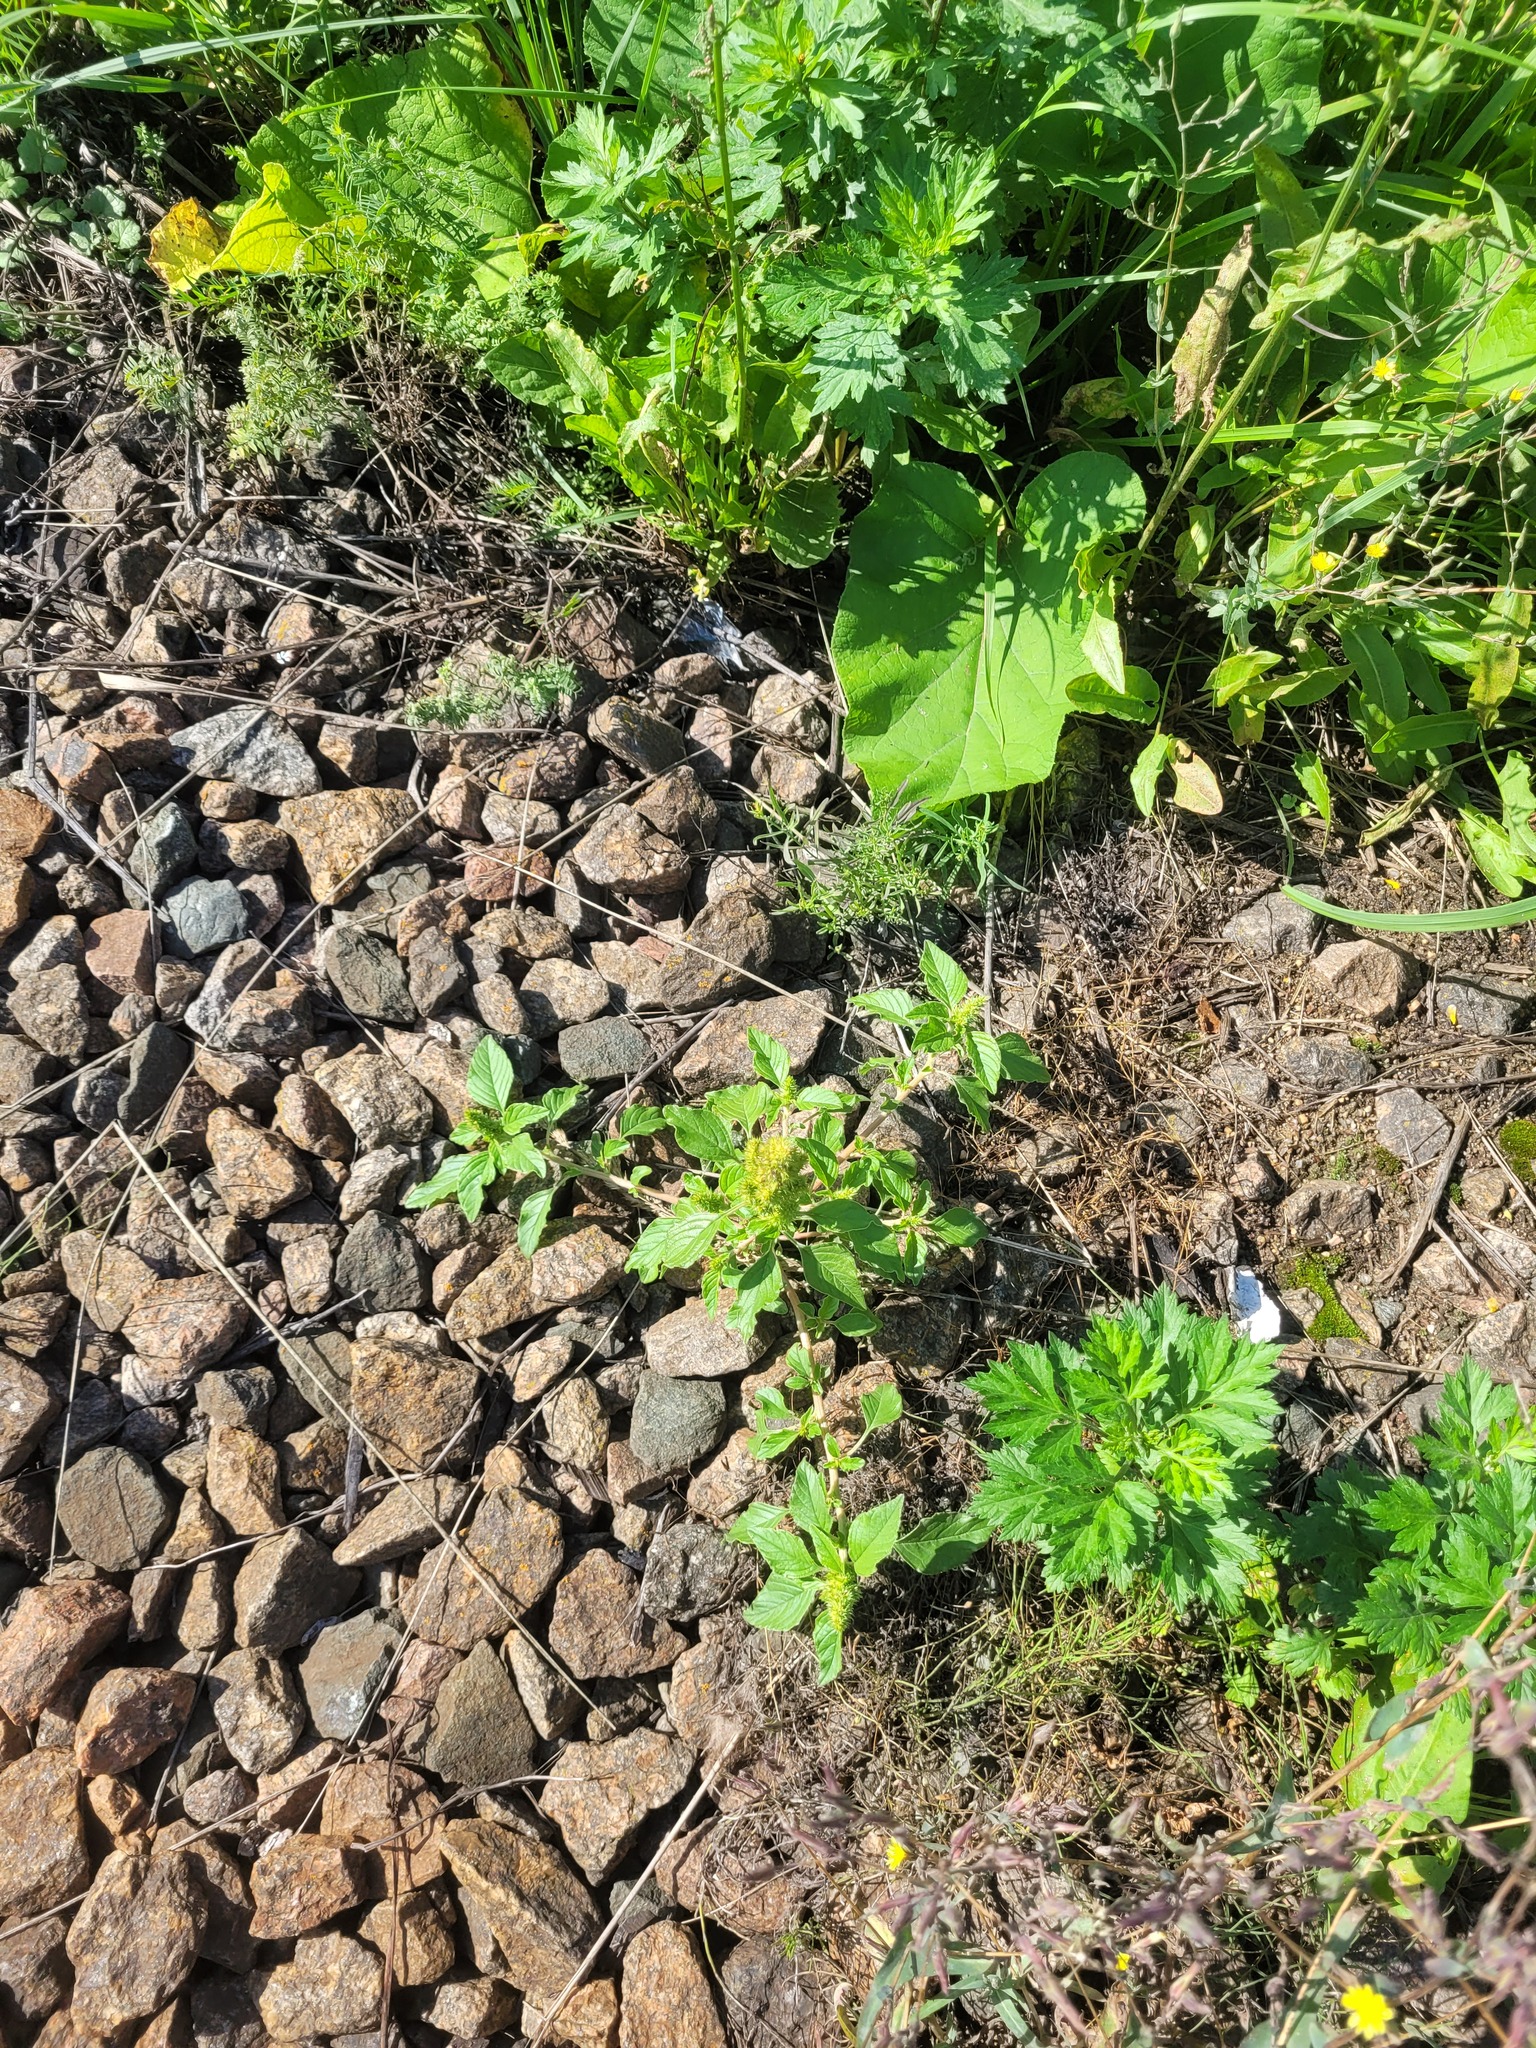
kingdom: Plantae
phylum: Tracheophyta
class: Magnoliopsida
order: Caryophyllales
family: Amaranthaceae
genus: Amaranthus
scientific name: Amaranthus retroflexus
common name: Redroot amaranth
